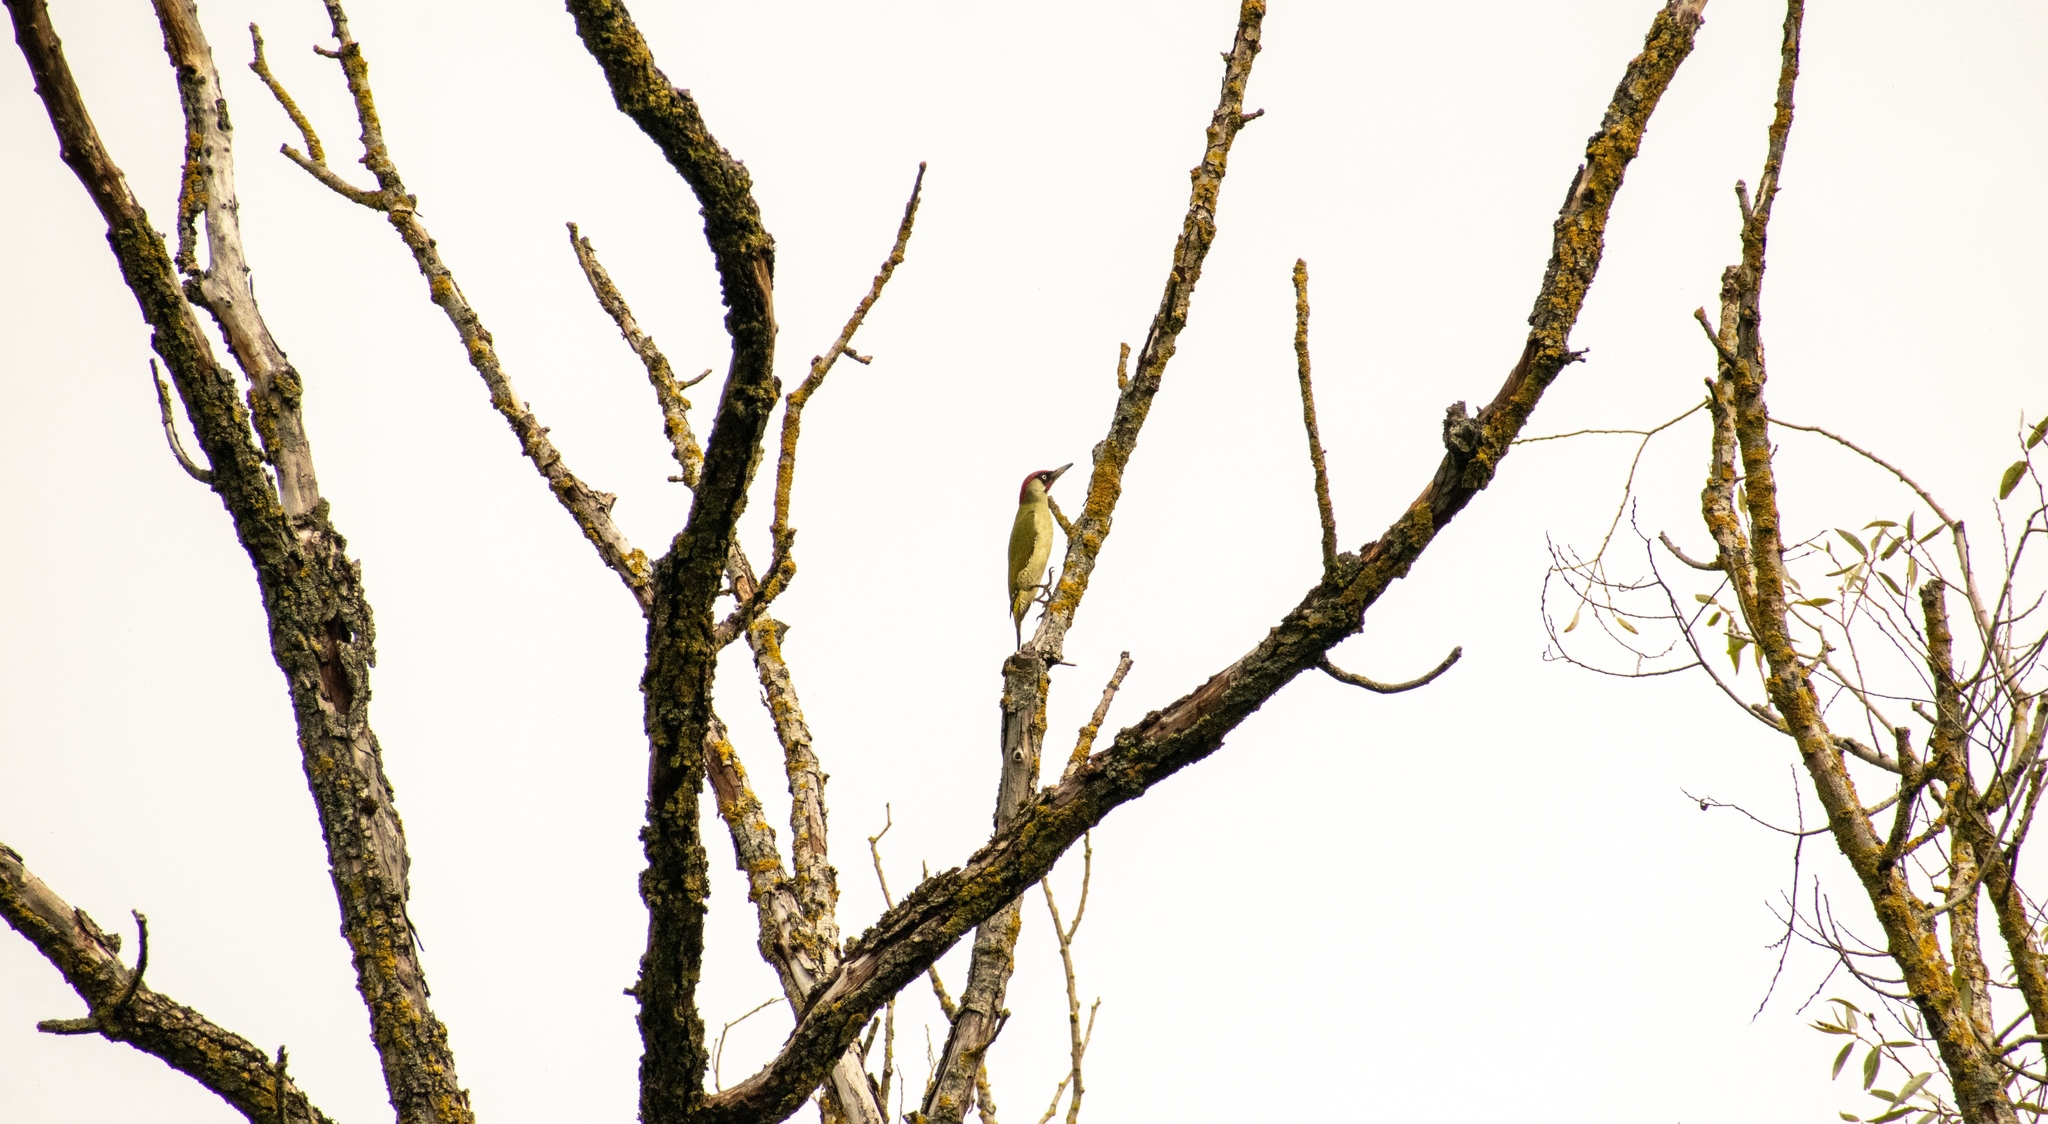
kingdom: Animalia
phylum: Chordata
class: Aves
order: Piciformes
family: Picidae
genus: Picus
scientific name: Picus viridis
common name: European green woodpecker
